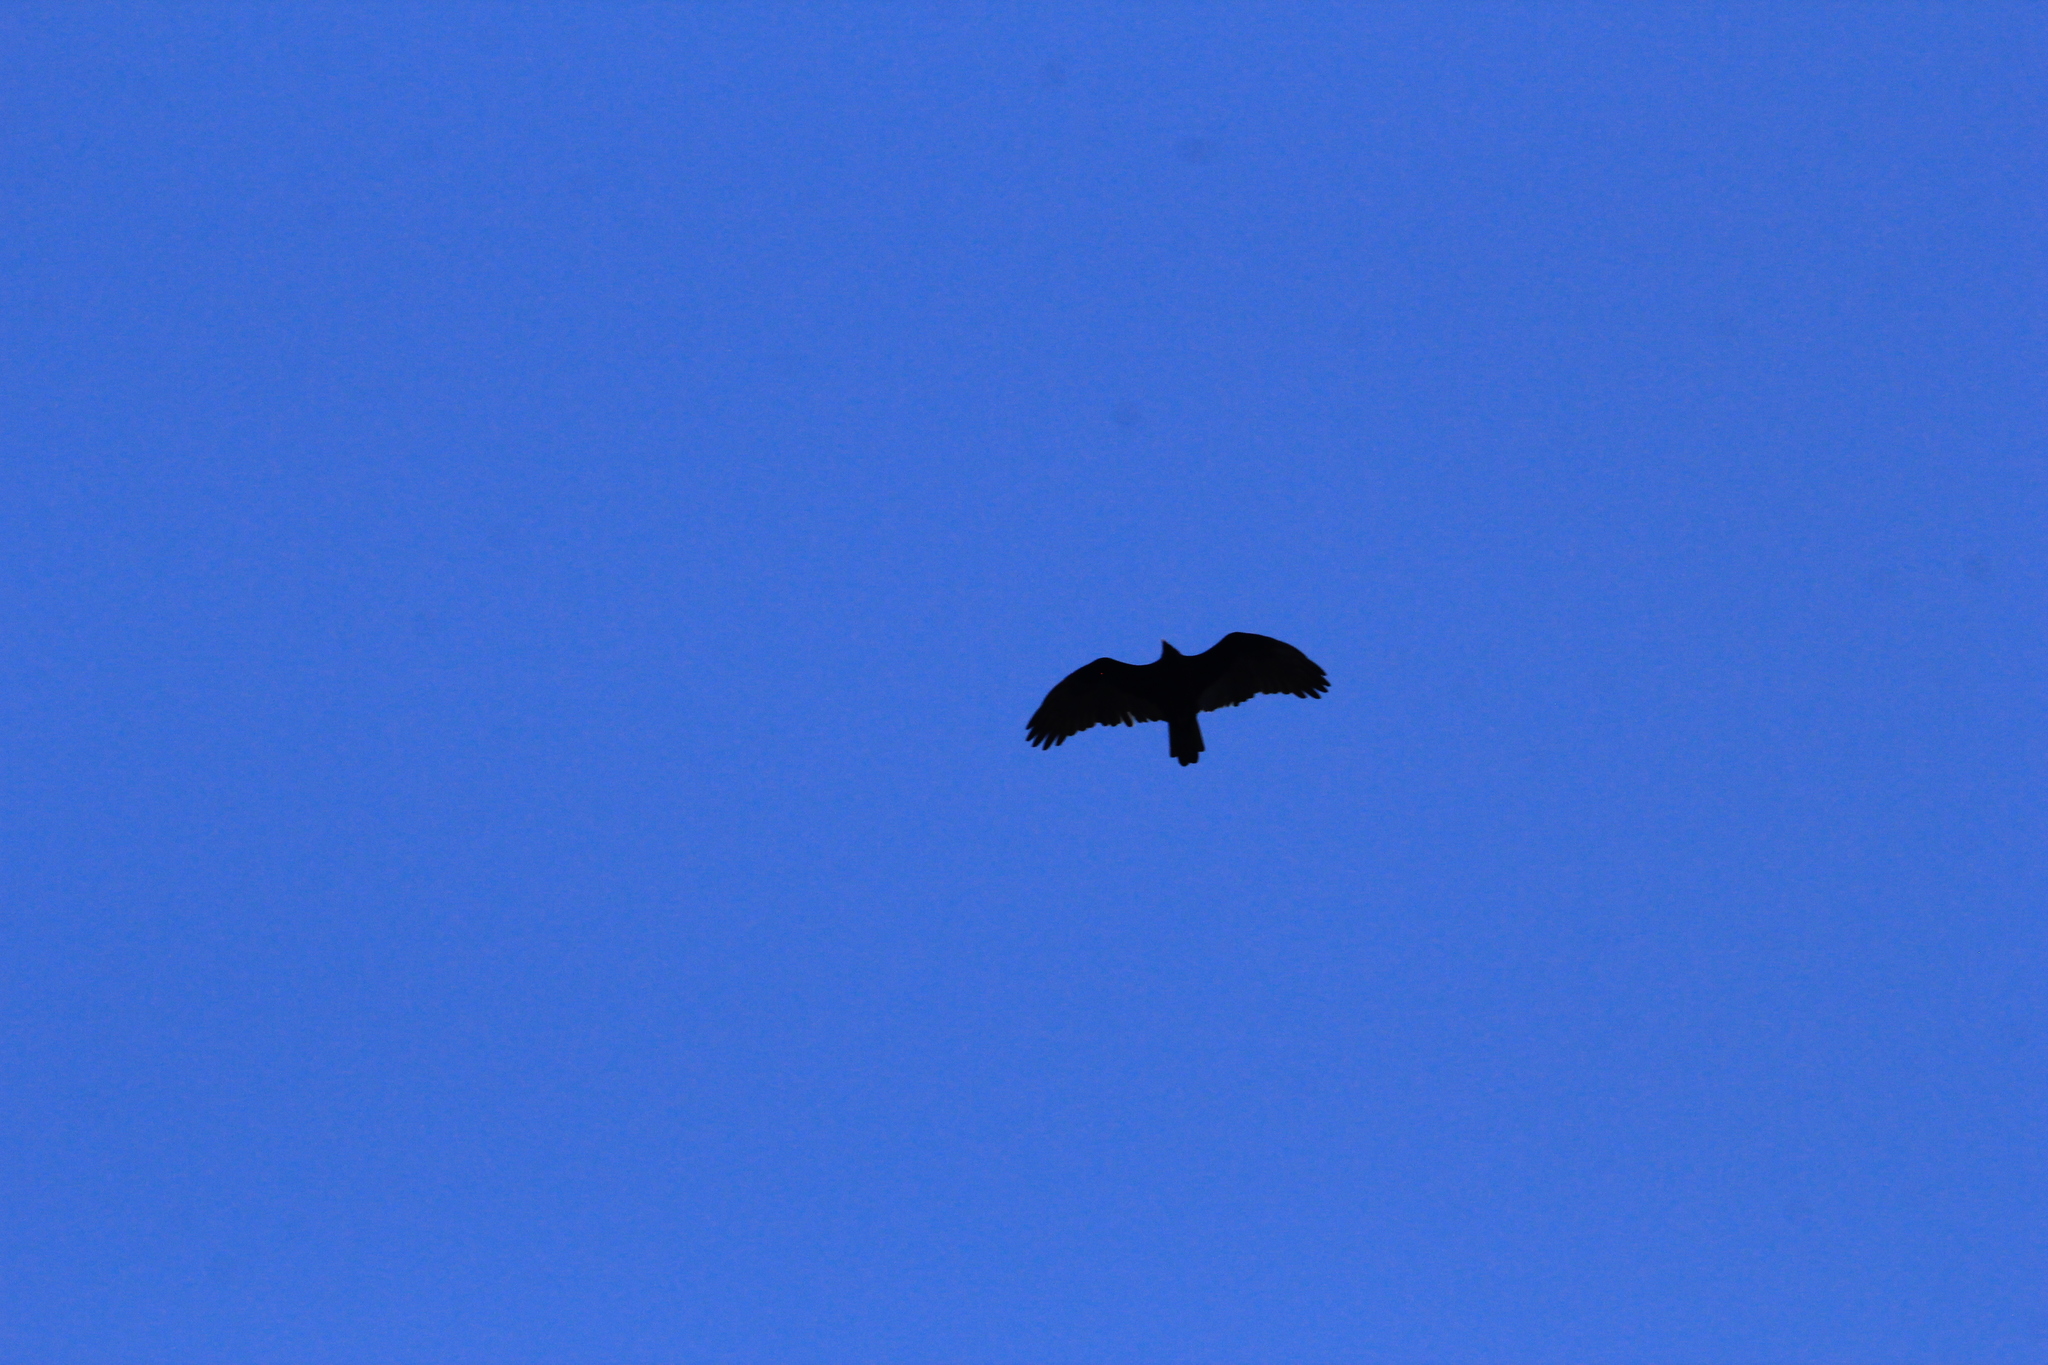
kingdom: Animalia
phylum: Chordata
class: Aves
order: Accipitriformes
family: Cathartidae
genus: Cathartes
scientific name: Cathartes aura
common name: Turkey vulture
